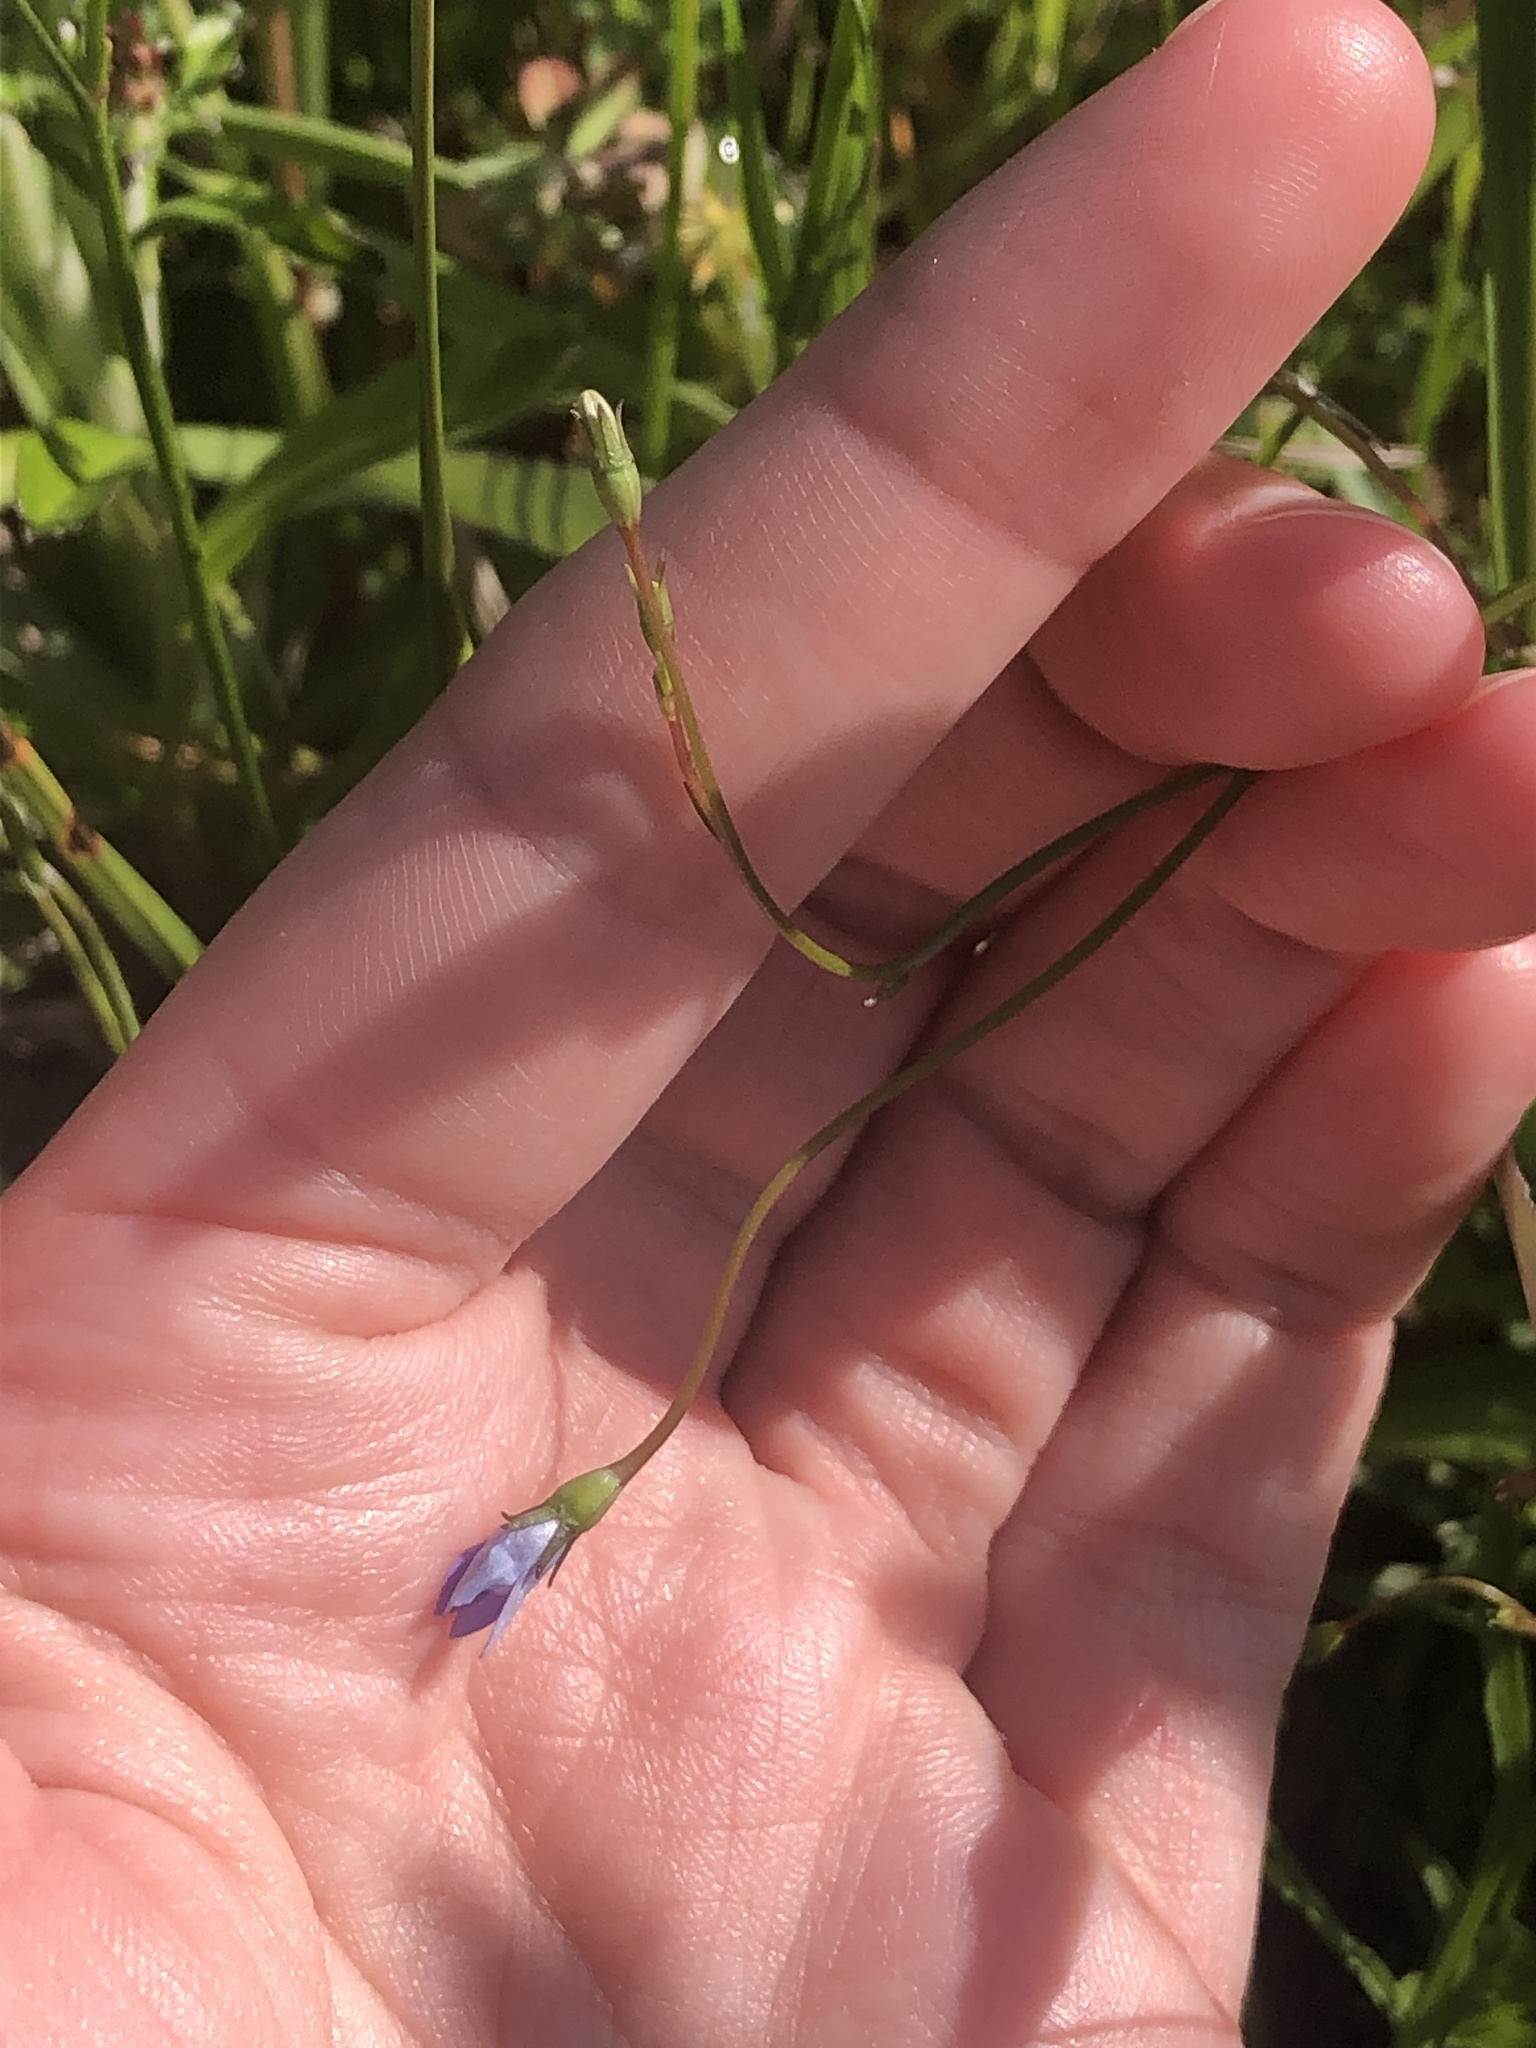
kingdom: Plantae
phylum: Tracheophyta
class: Magnoliopsida
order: Asterales
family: Campanulaceae
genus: Wahlenbergia
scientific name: Wahlenbergia marginata
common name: Southern rockbell
